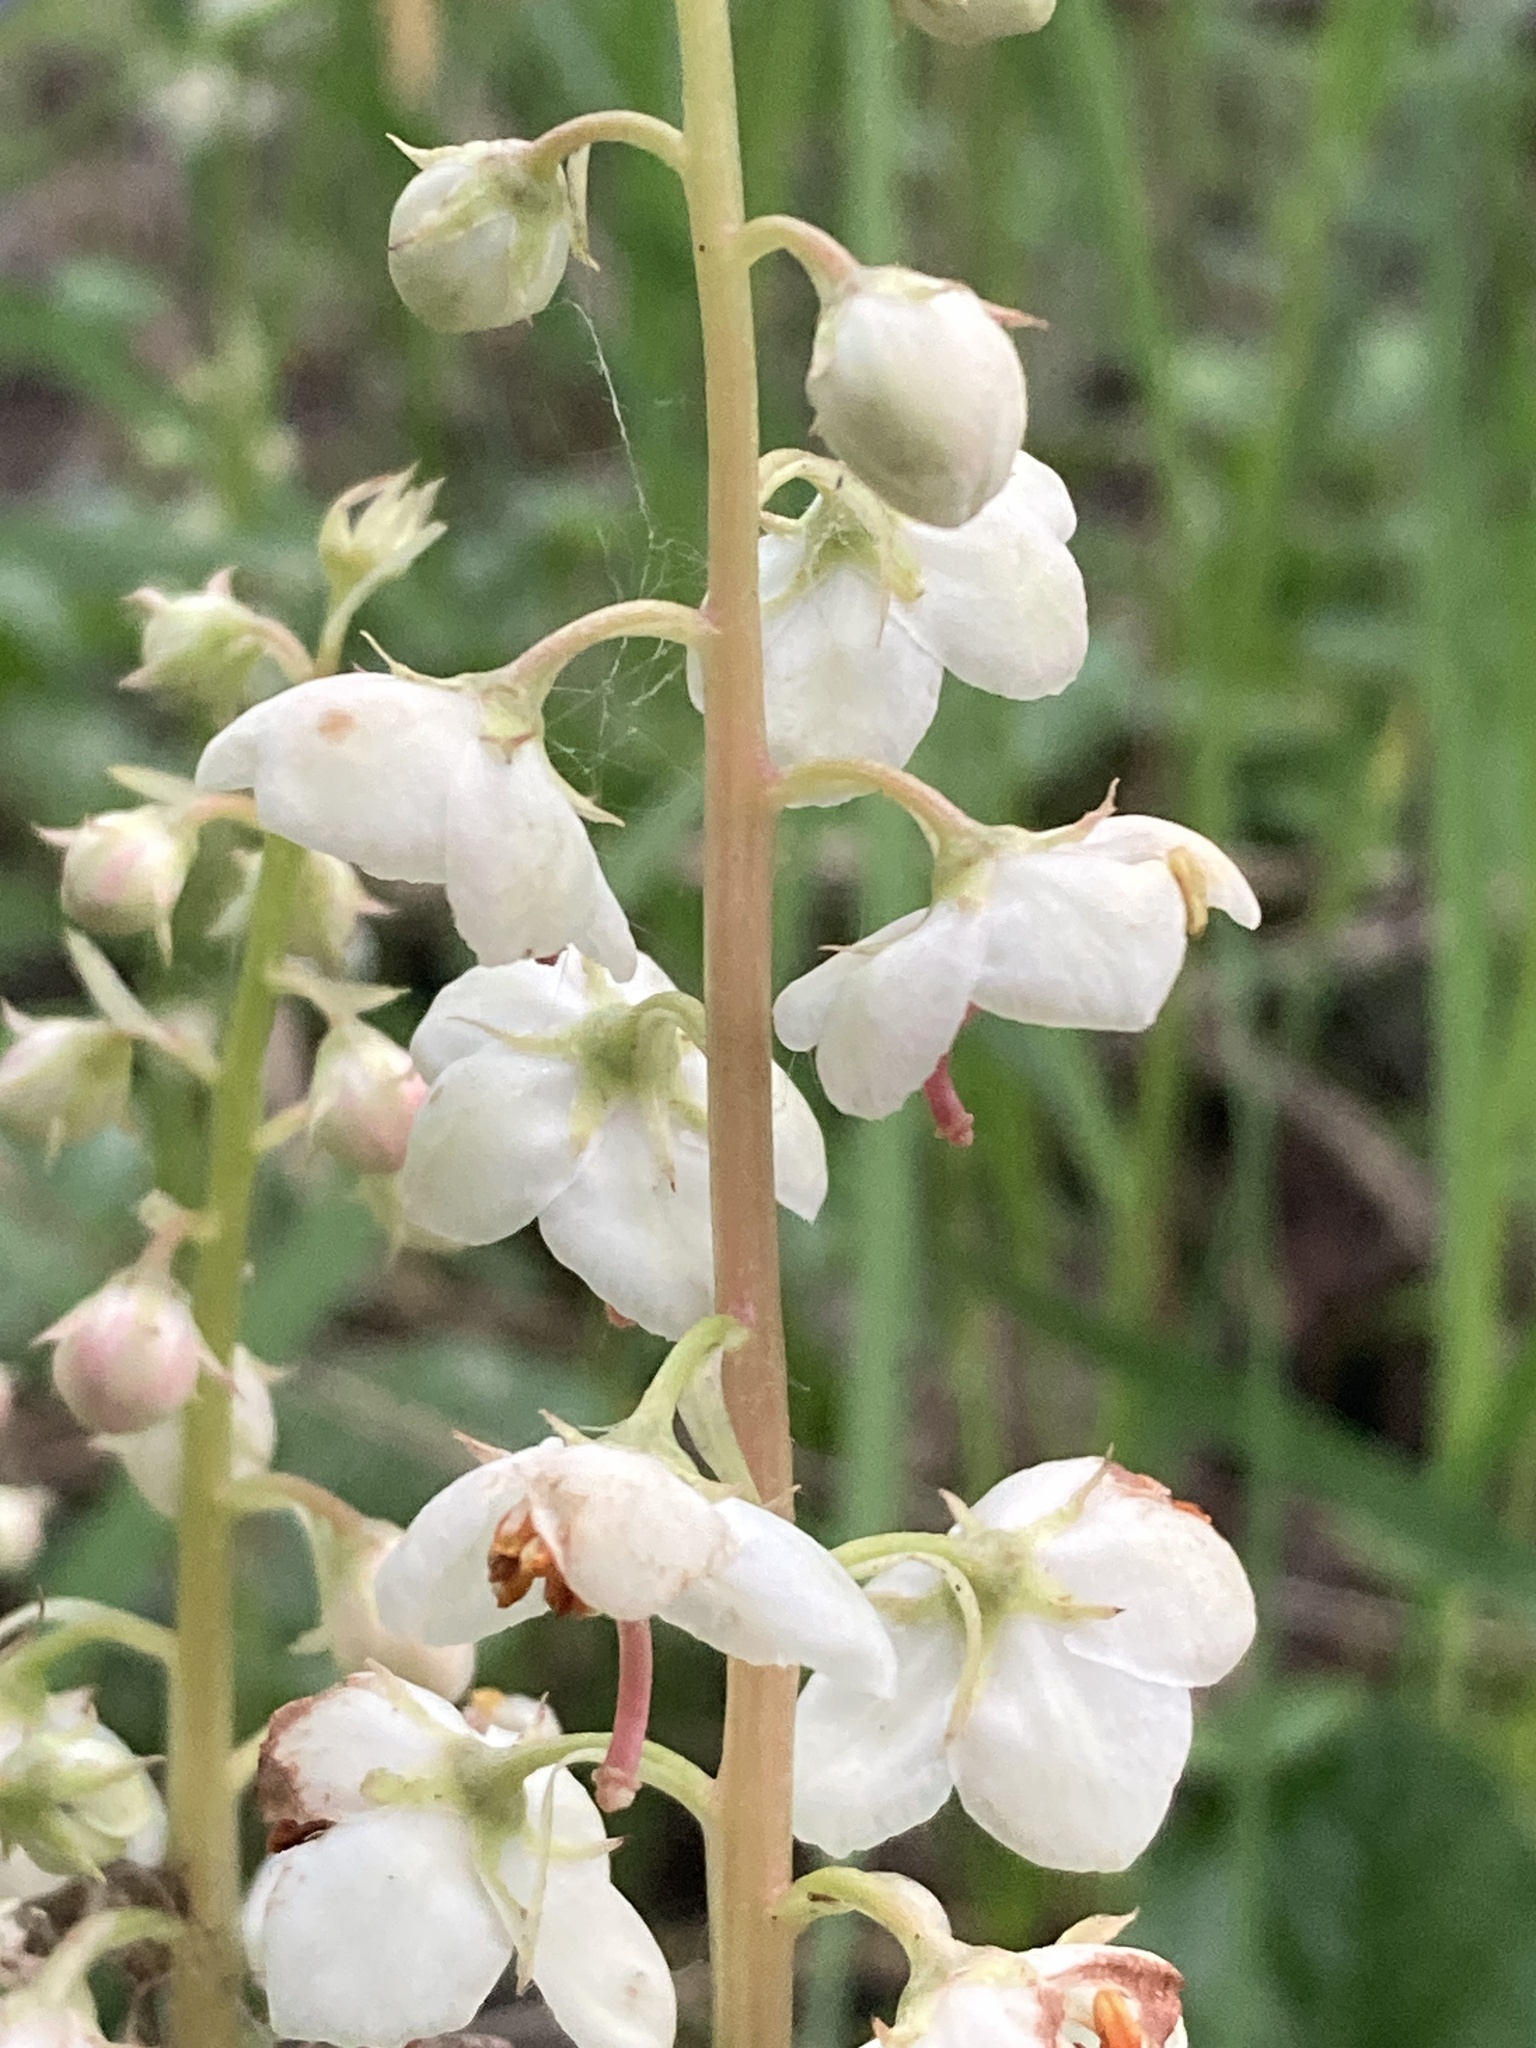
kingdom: Plantae
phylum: Tracheophyta
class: Magnoliopsida
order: Ericales
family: Ericaceae
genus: Pyrola
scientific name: Pyrola rotundifolia
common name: Round-leaved wintergreen
